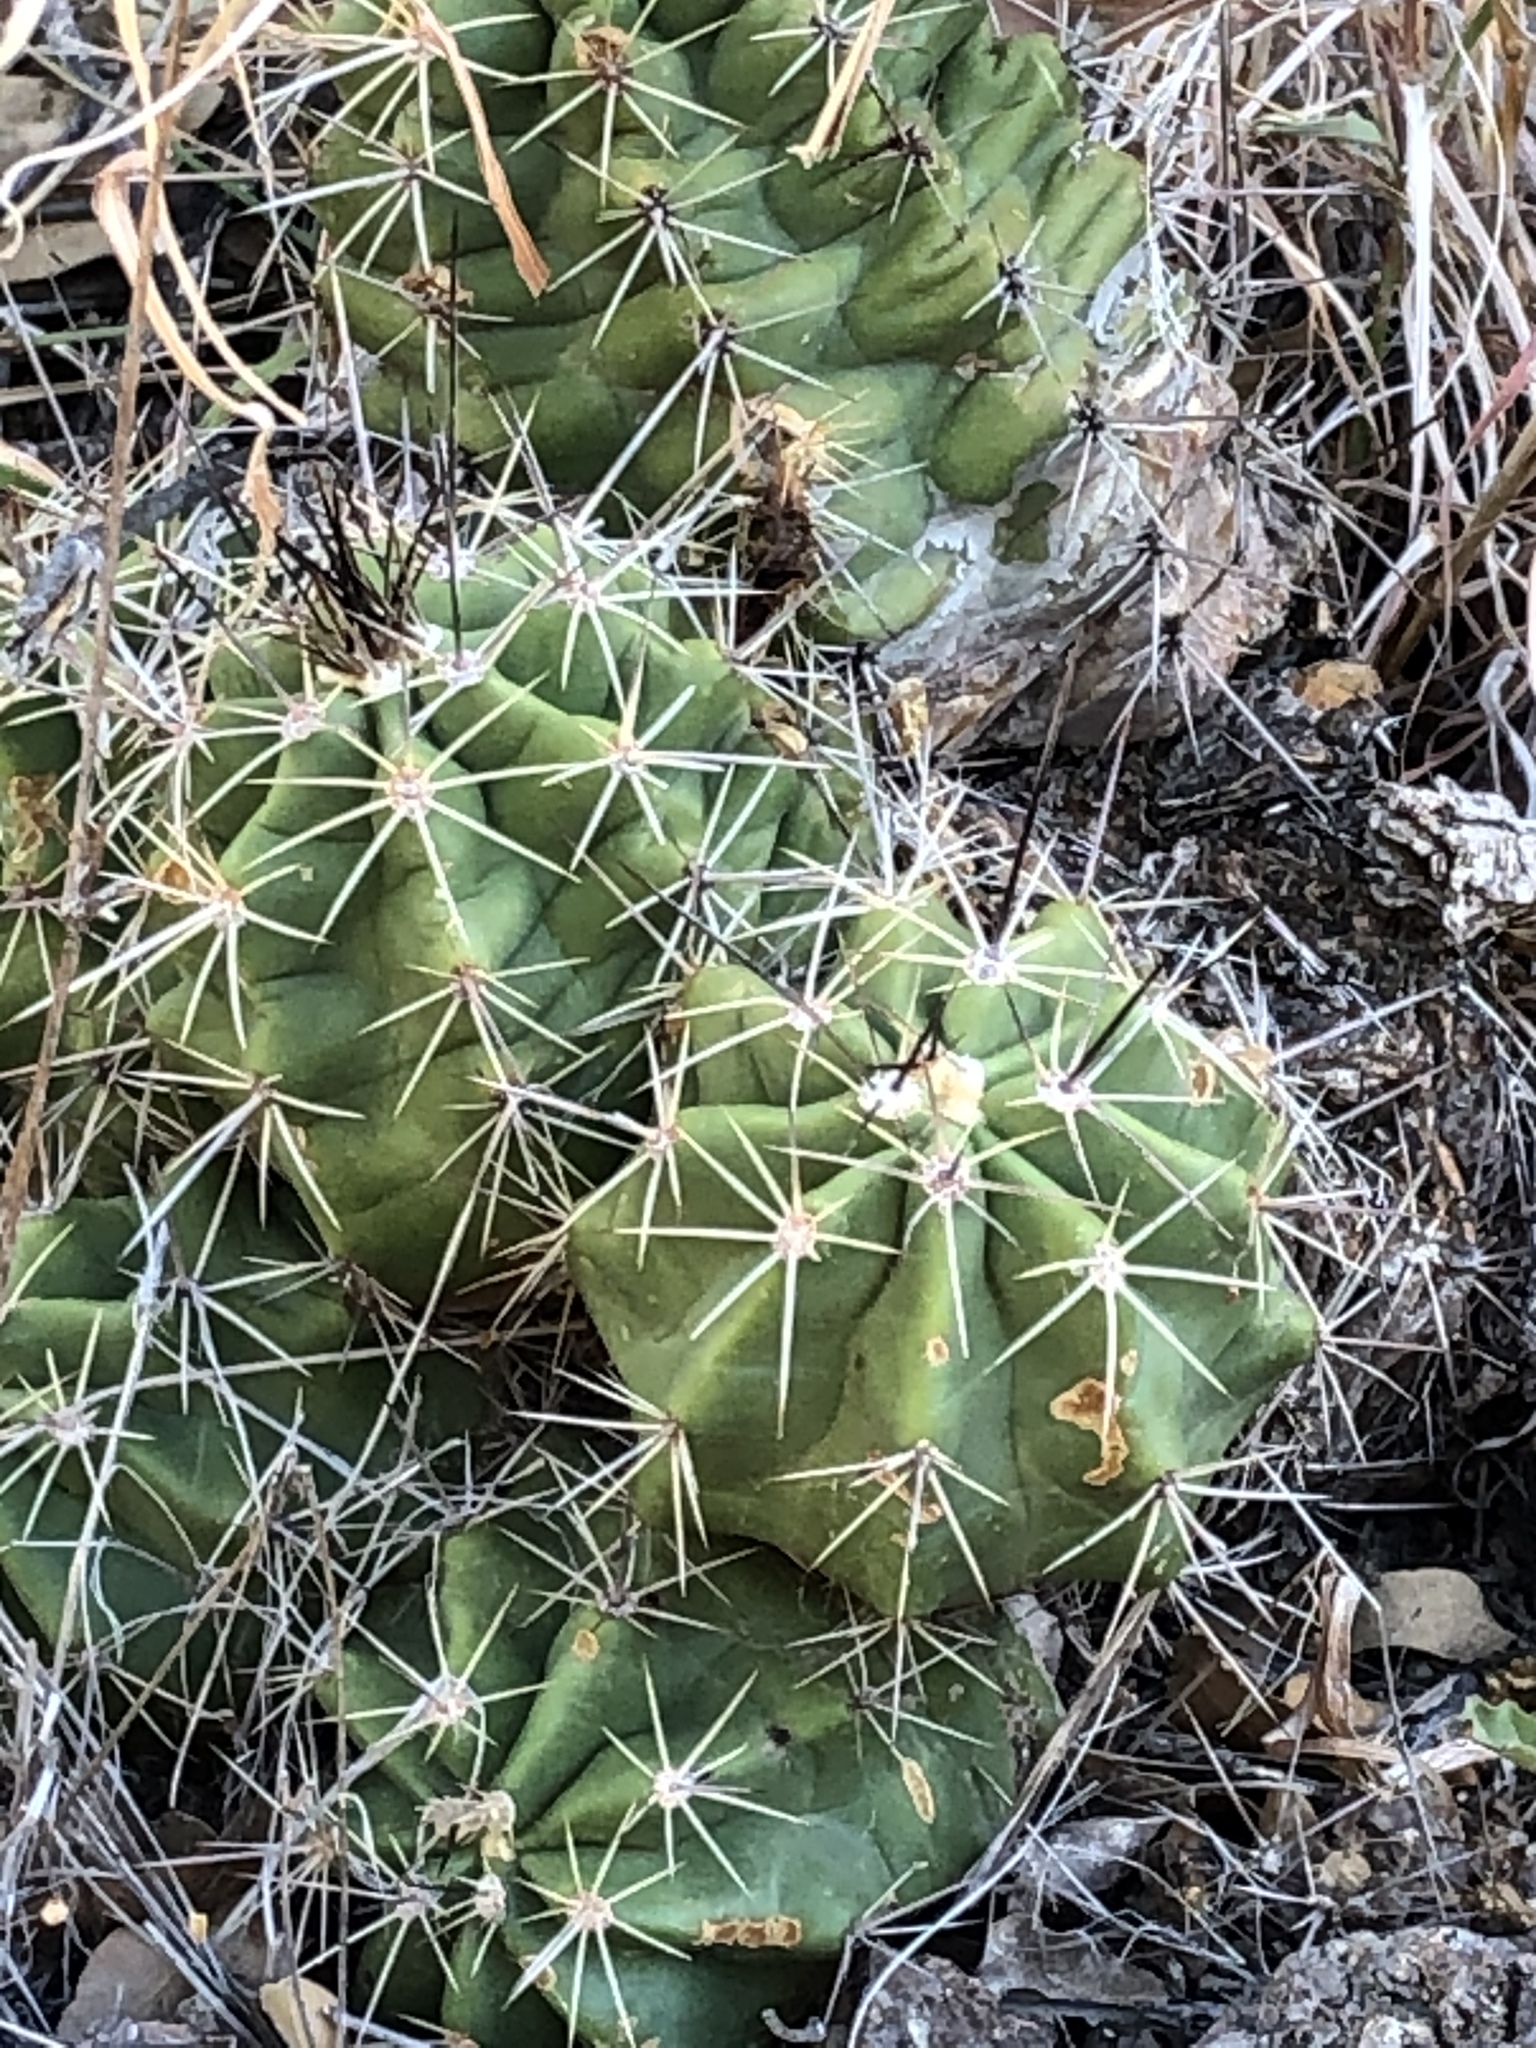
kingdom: Plantae
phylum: Tracheophyta
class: Magnoliopsida
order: Caryophyllales
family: Cactaceae
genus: Echinocereus
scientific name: Echinocereus coccineus
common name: Scarlet hedgehog cactus
